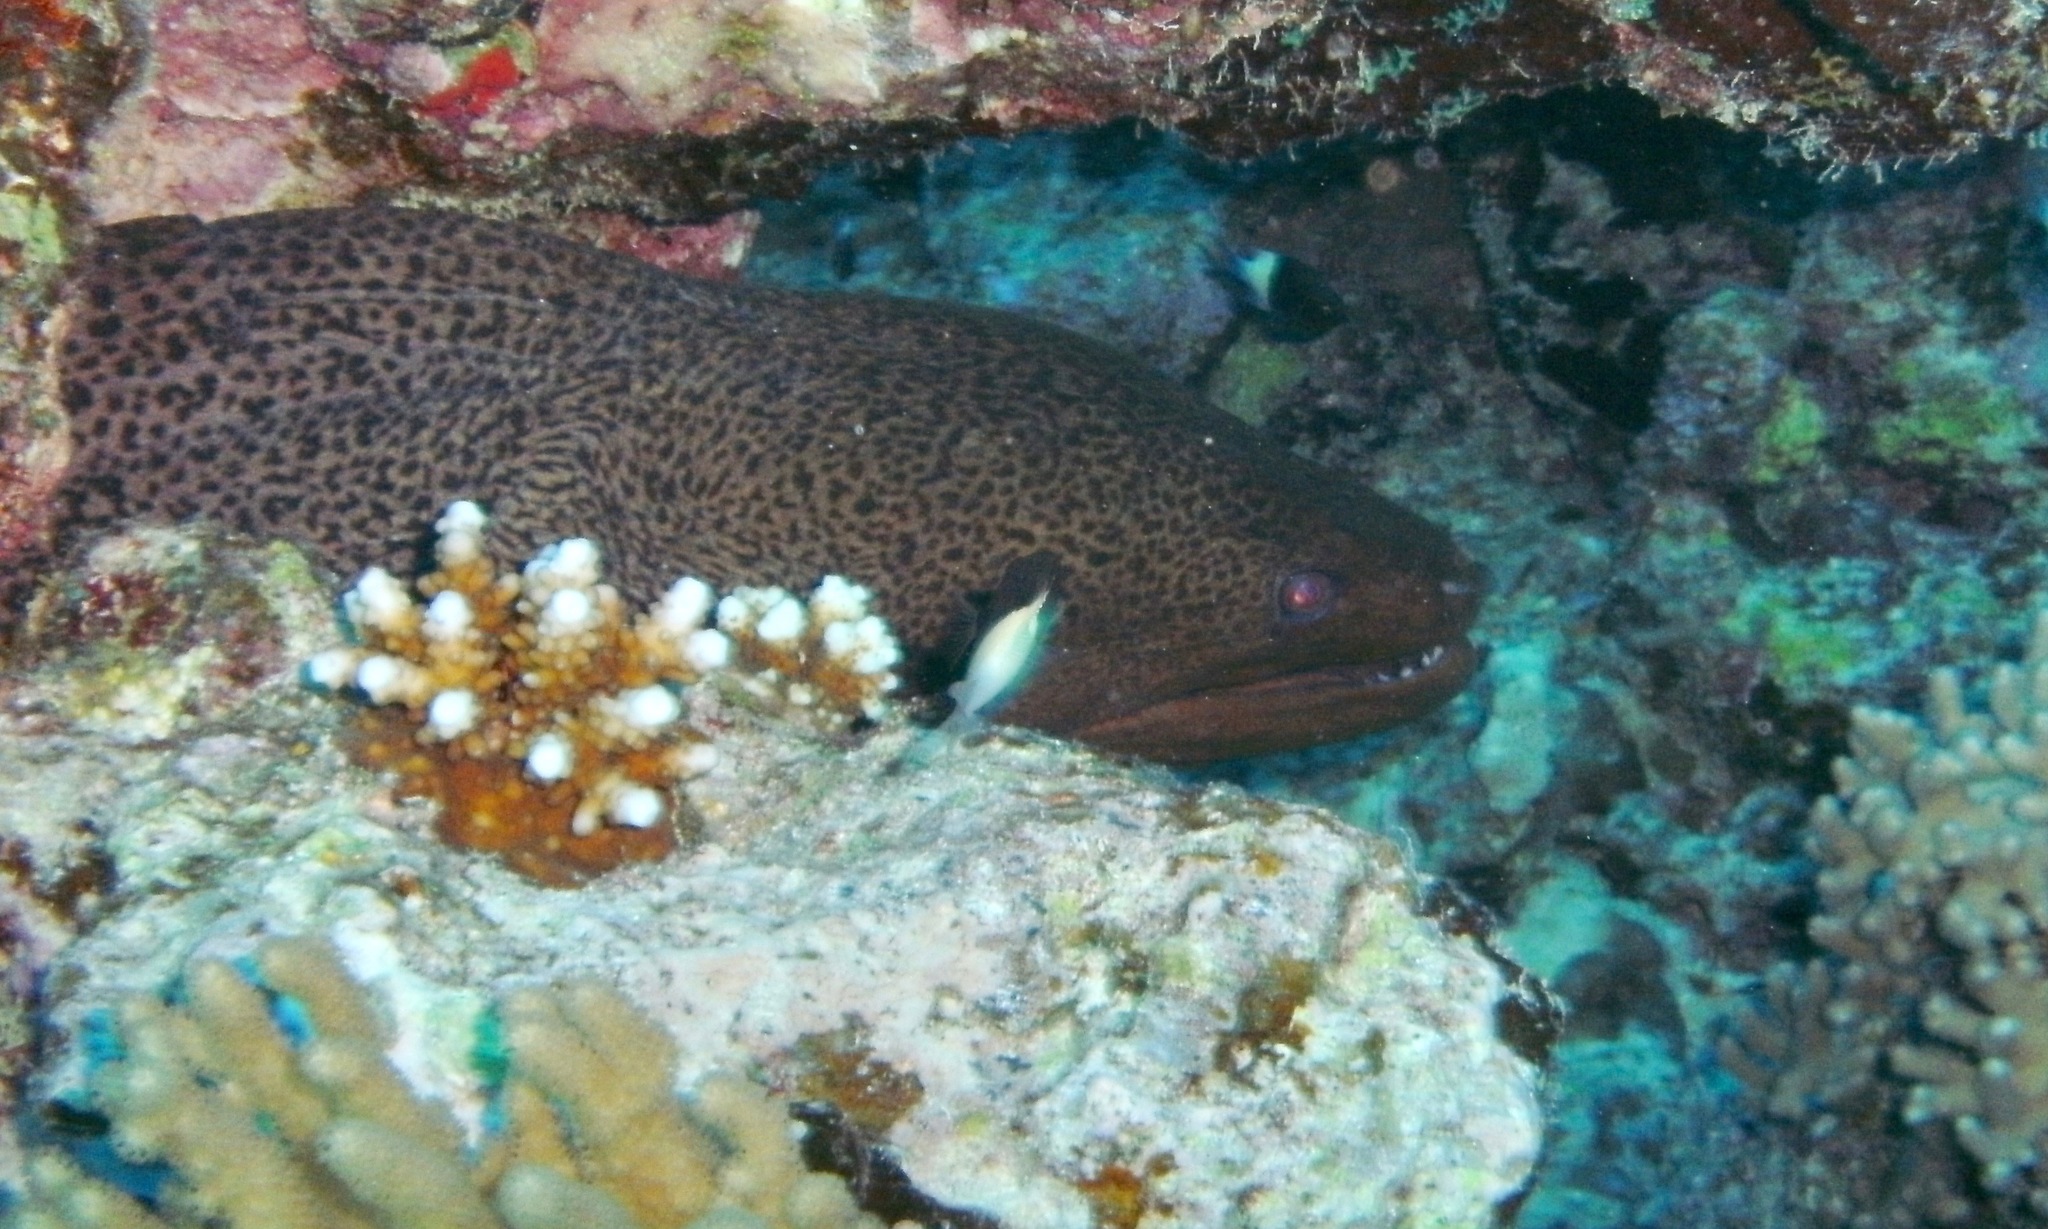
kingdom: Animalia
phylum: Chordata
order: Anguilliformes
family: Muraenidae
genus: Gymnothorax
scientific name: Gymnothorax javanicus
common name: Giant moray
